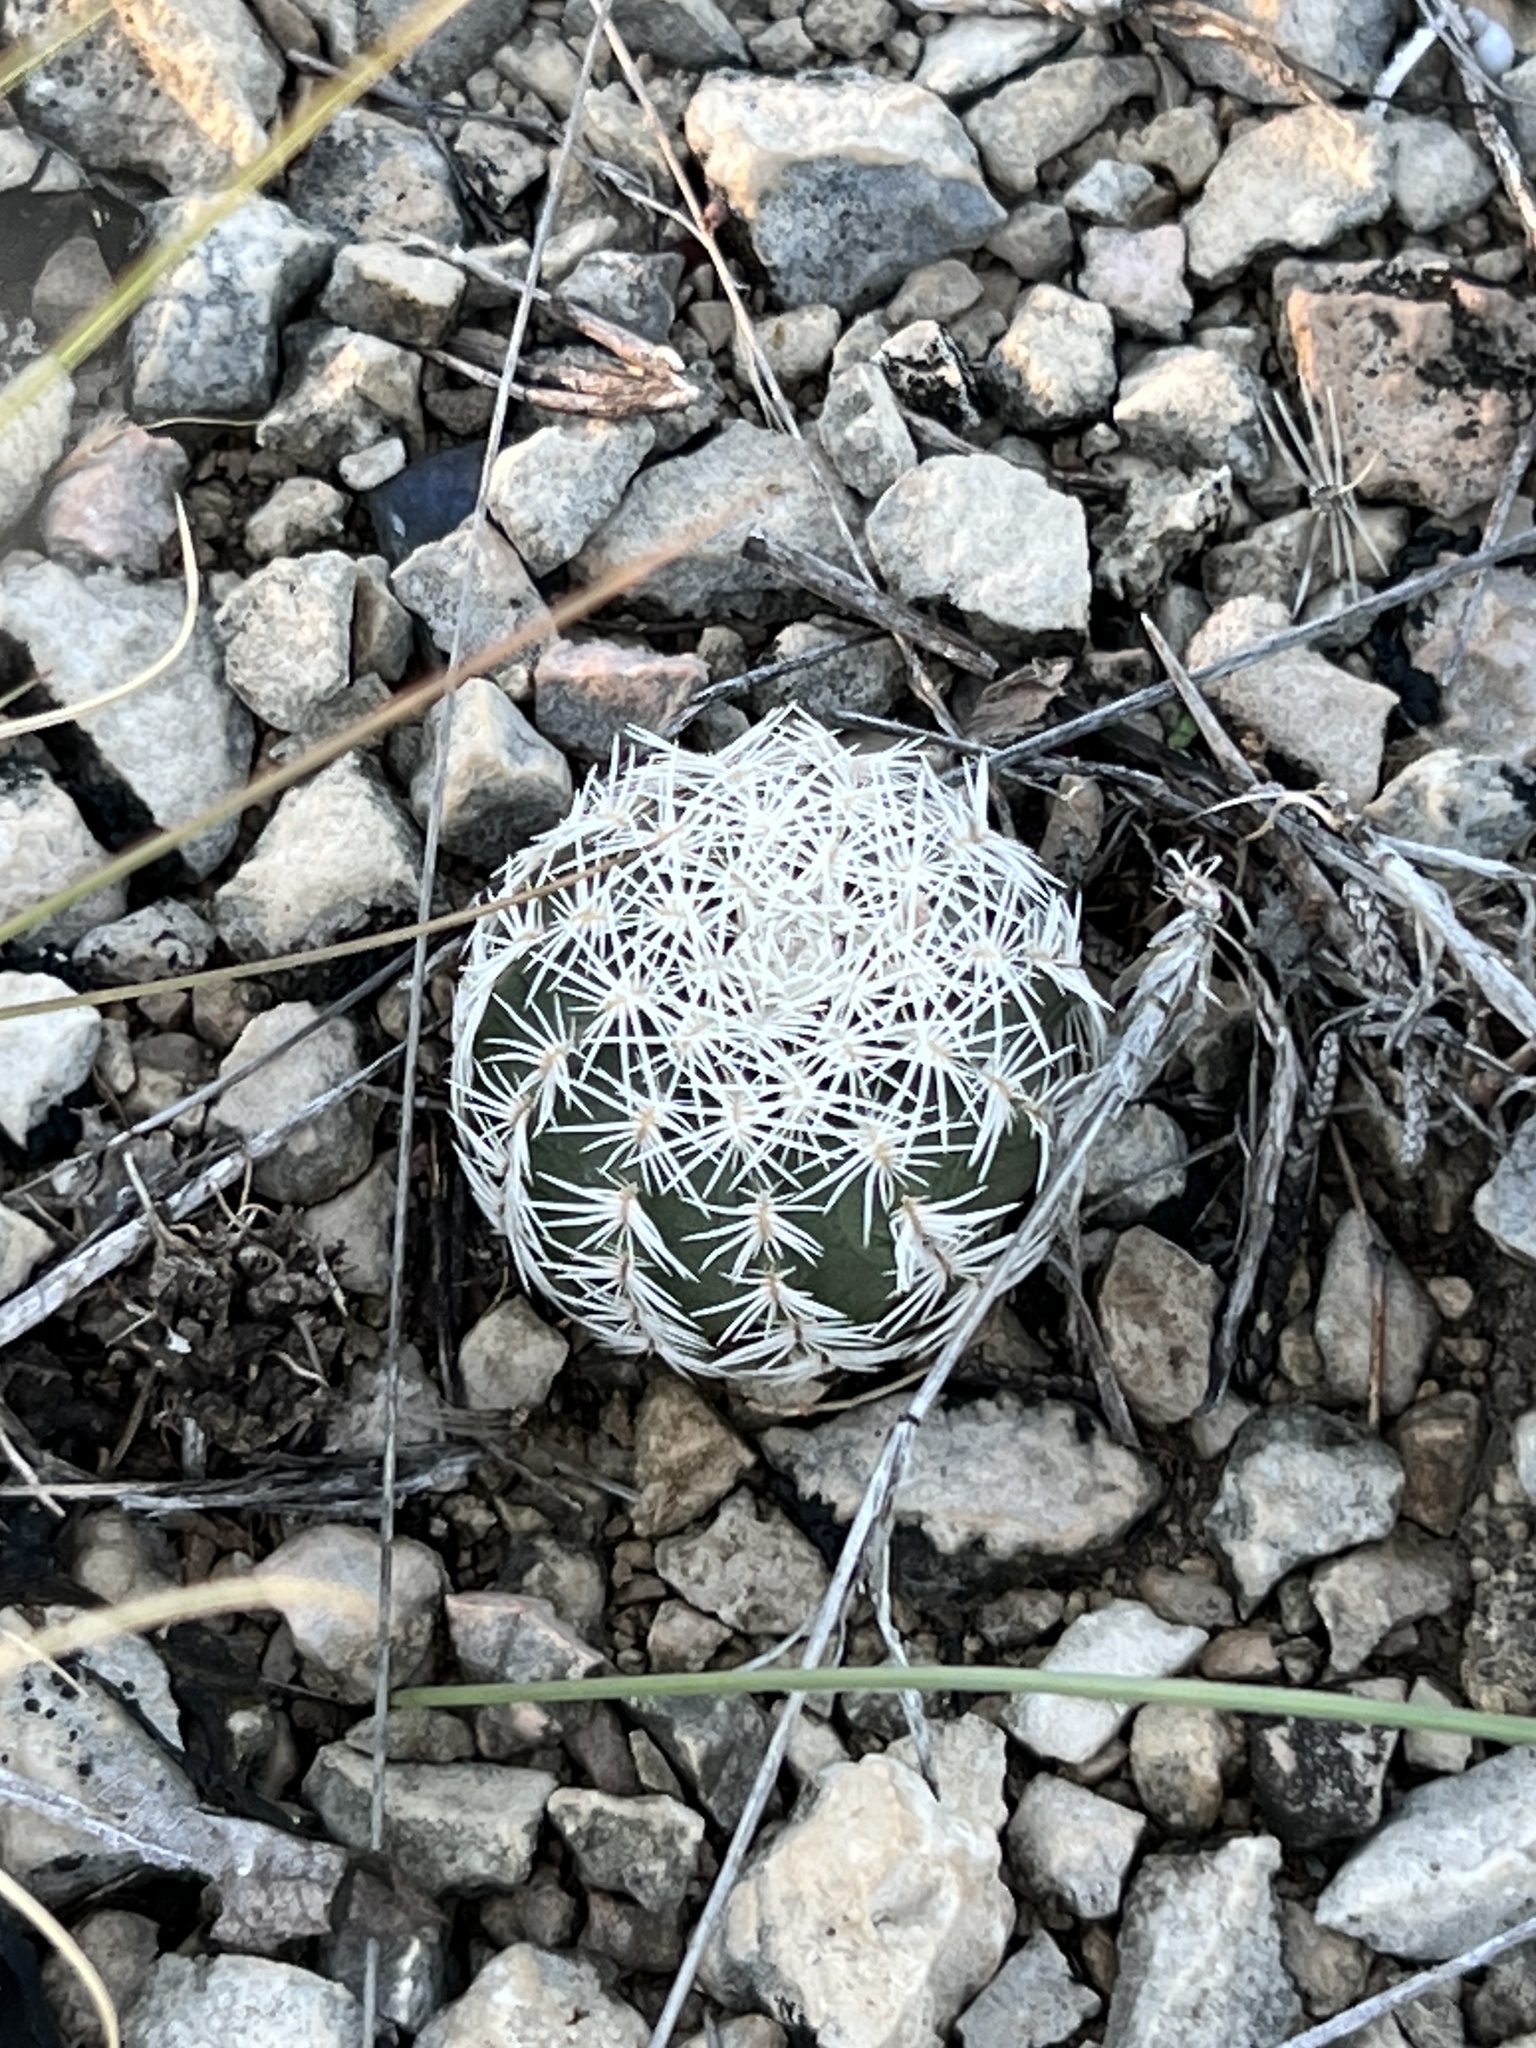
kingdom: Plantae
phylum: Tracheophyta
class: Magnoliopsida
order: Caryophyllales
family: Cactaceae
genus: Echinocereus
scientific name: Echinocereus reichenbachii
